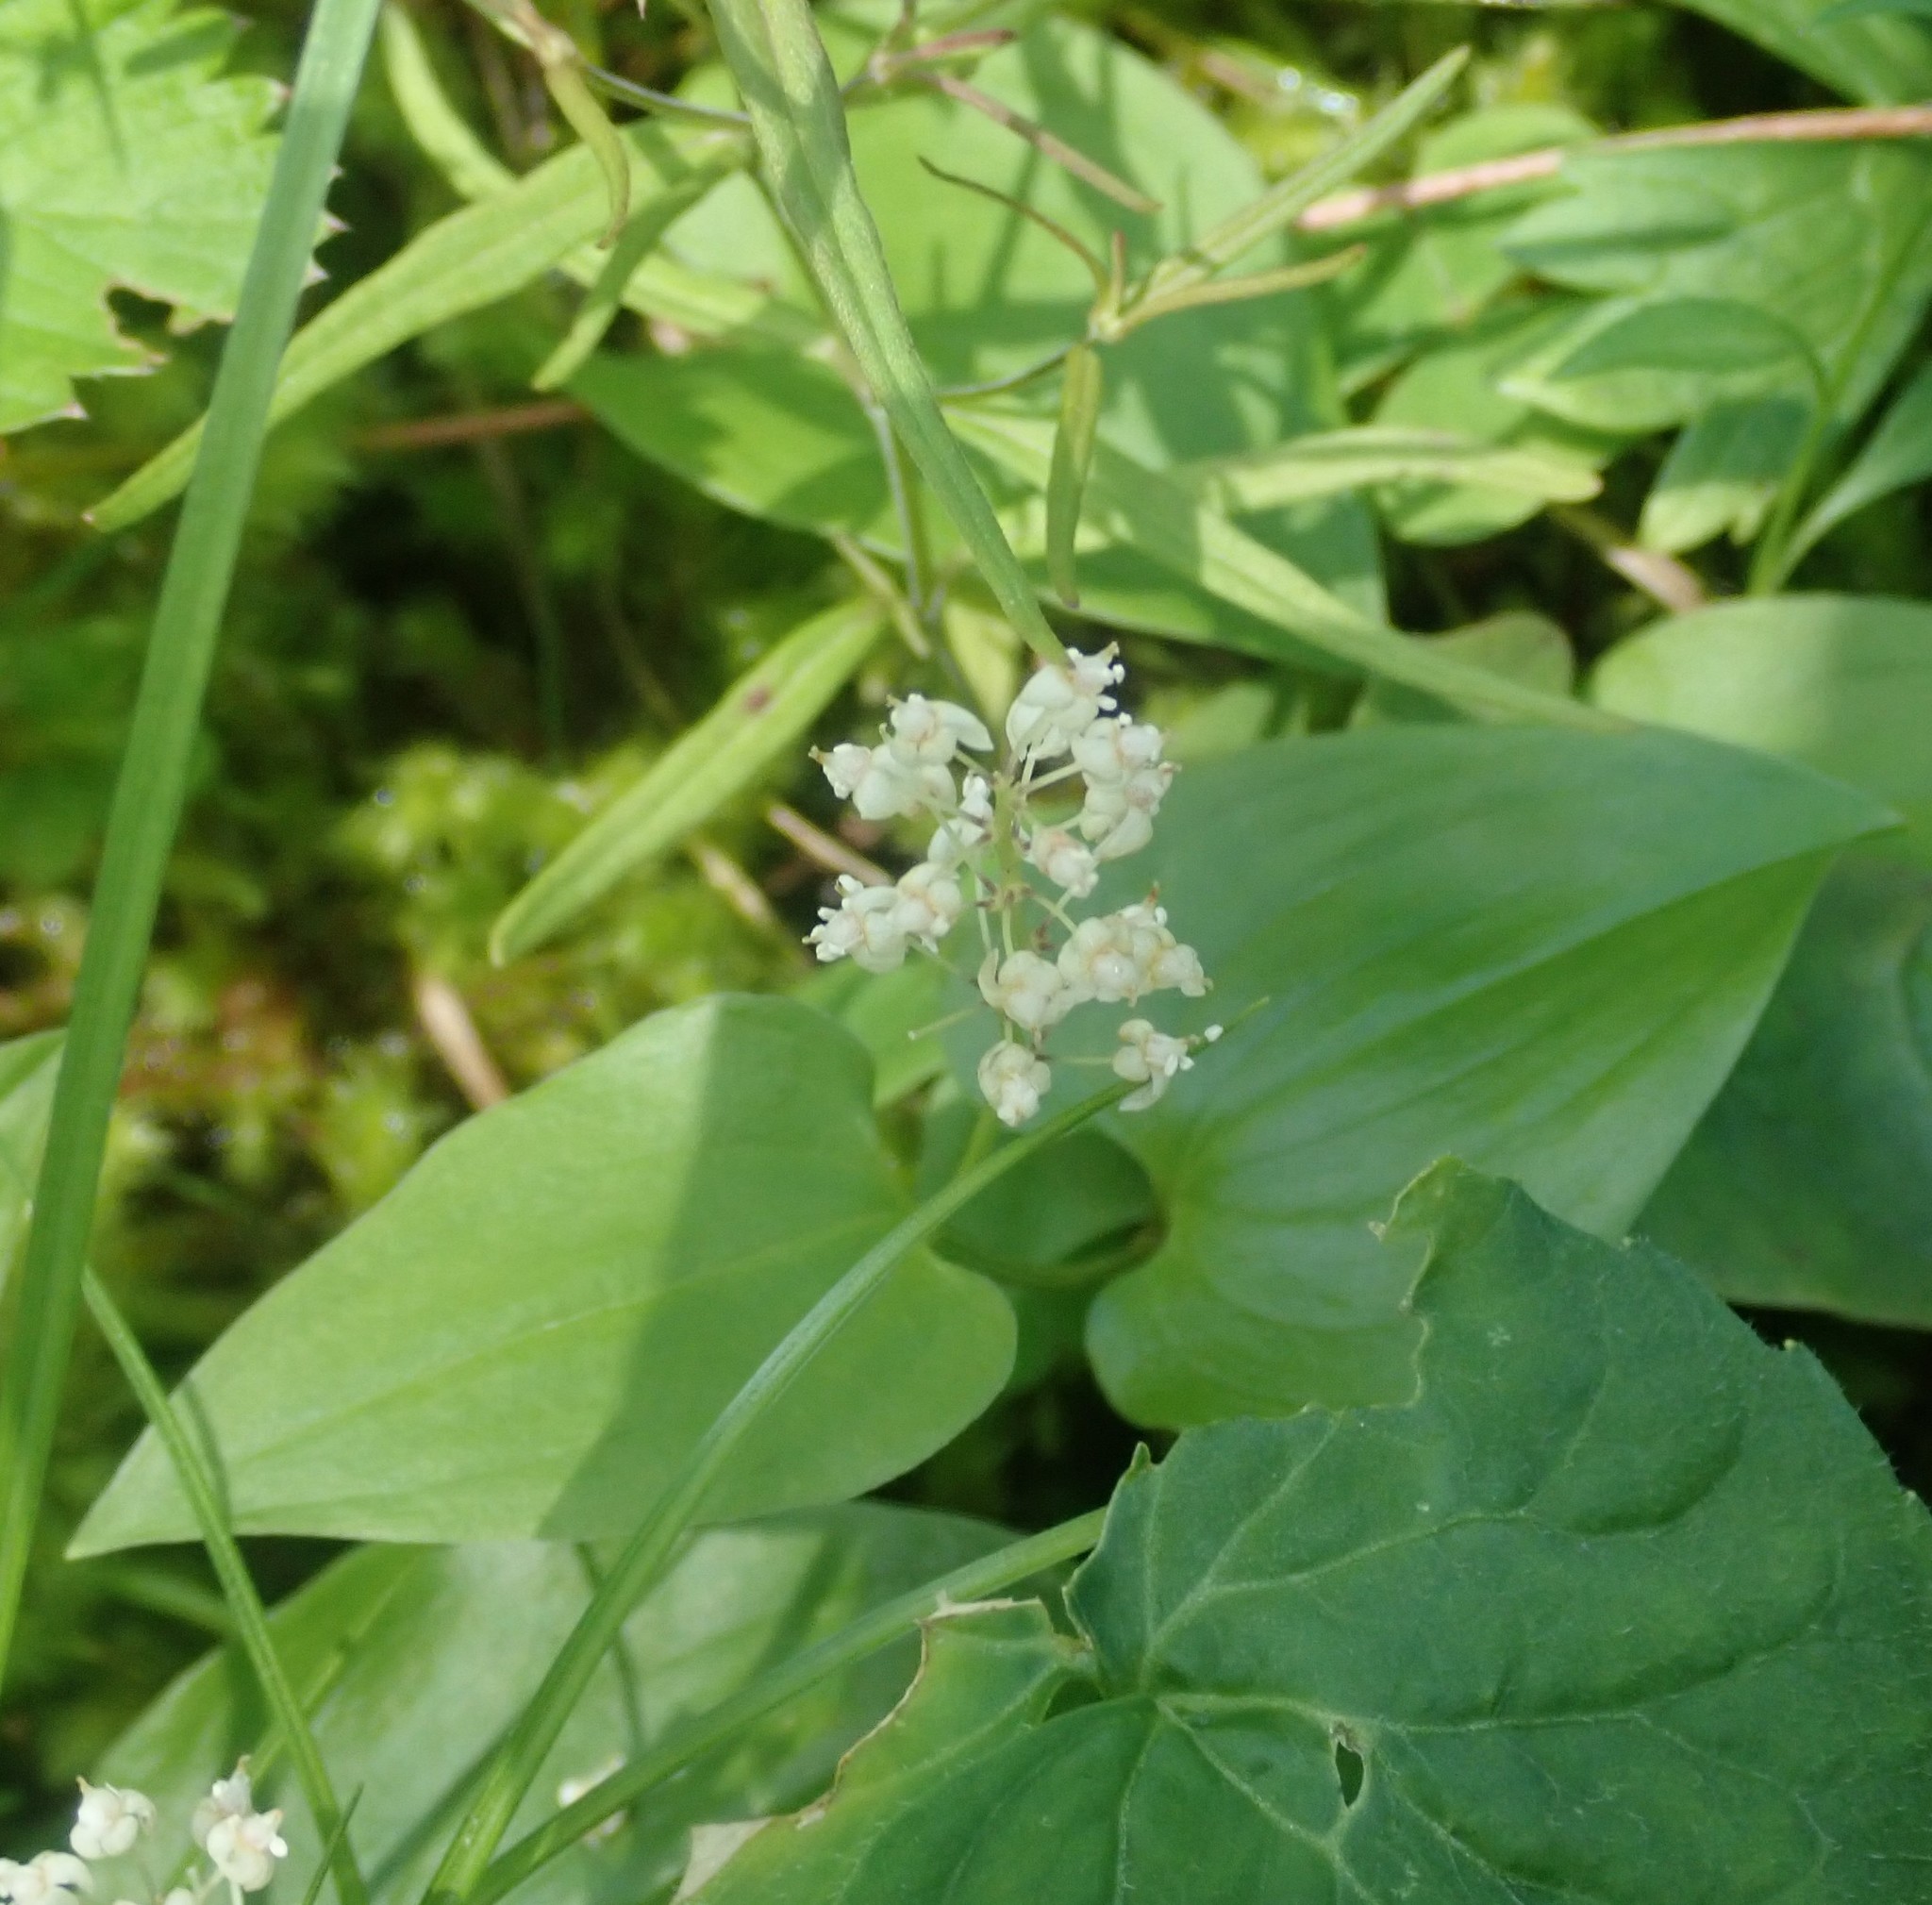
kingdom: Plantae
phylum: Tracheophyta
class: Liliopsida
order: Asparagales
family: Asparagaceae
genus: Maianthemum
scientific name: Maianthemum bifolium
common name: May lily
